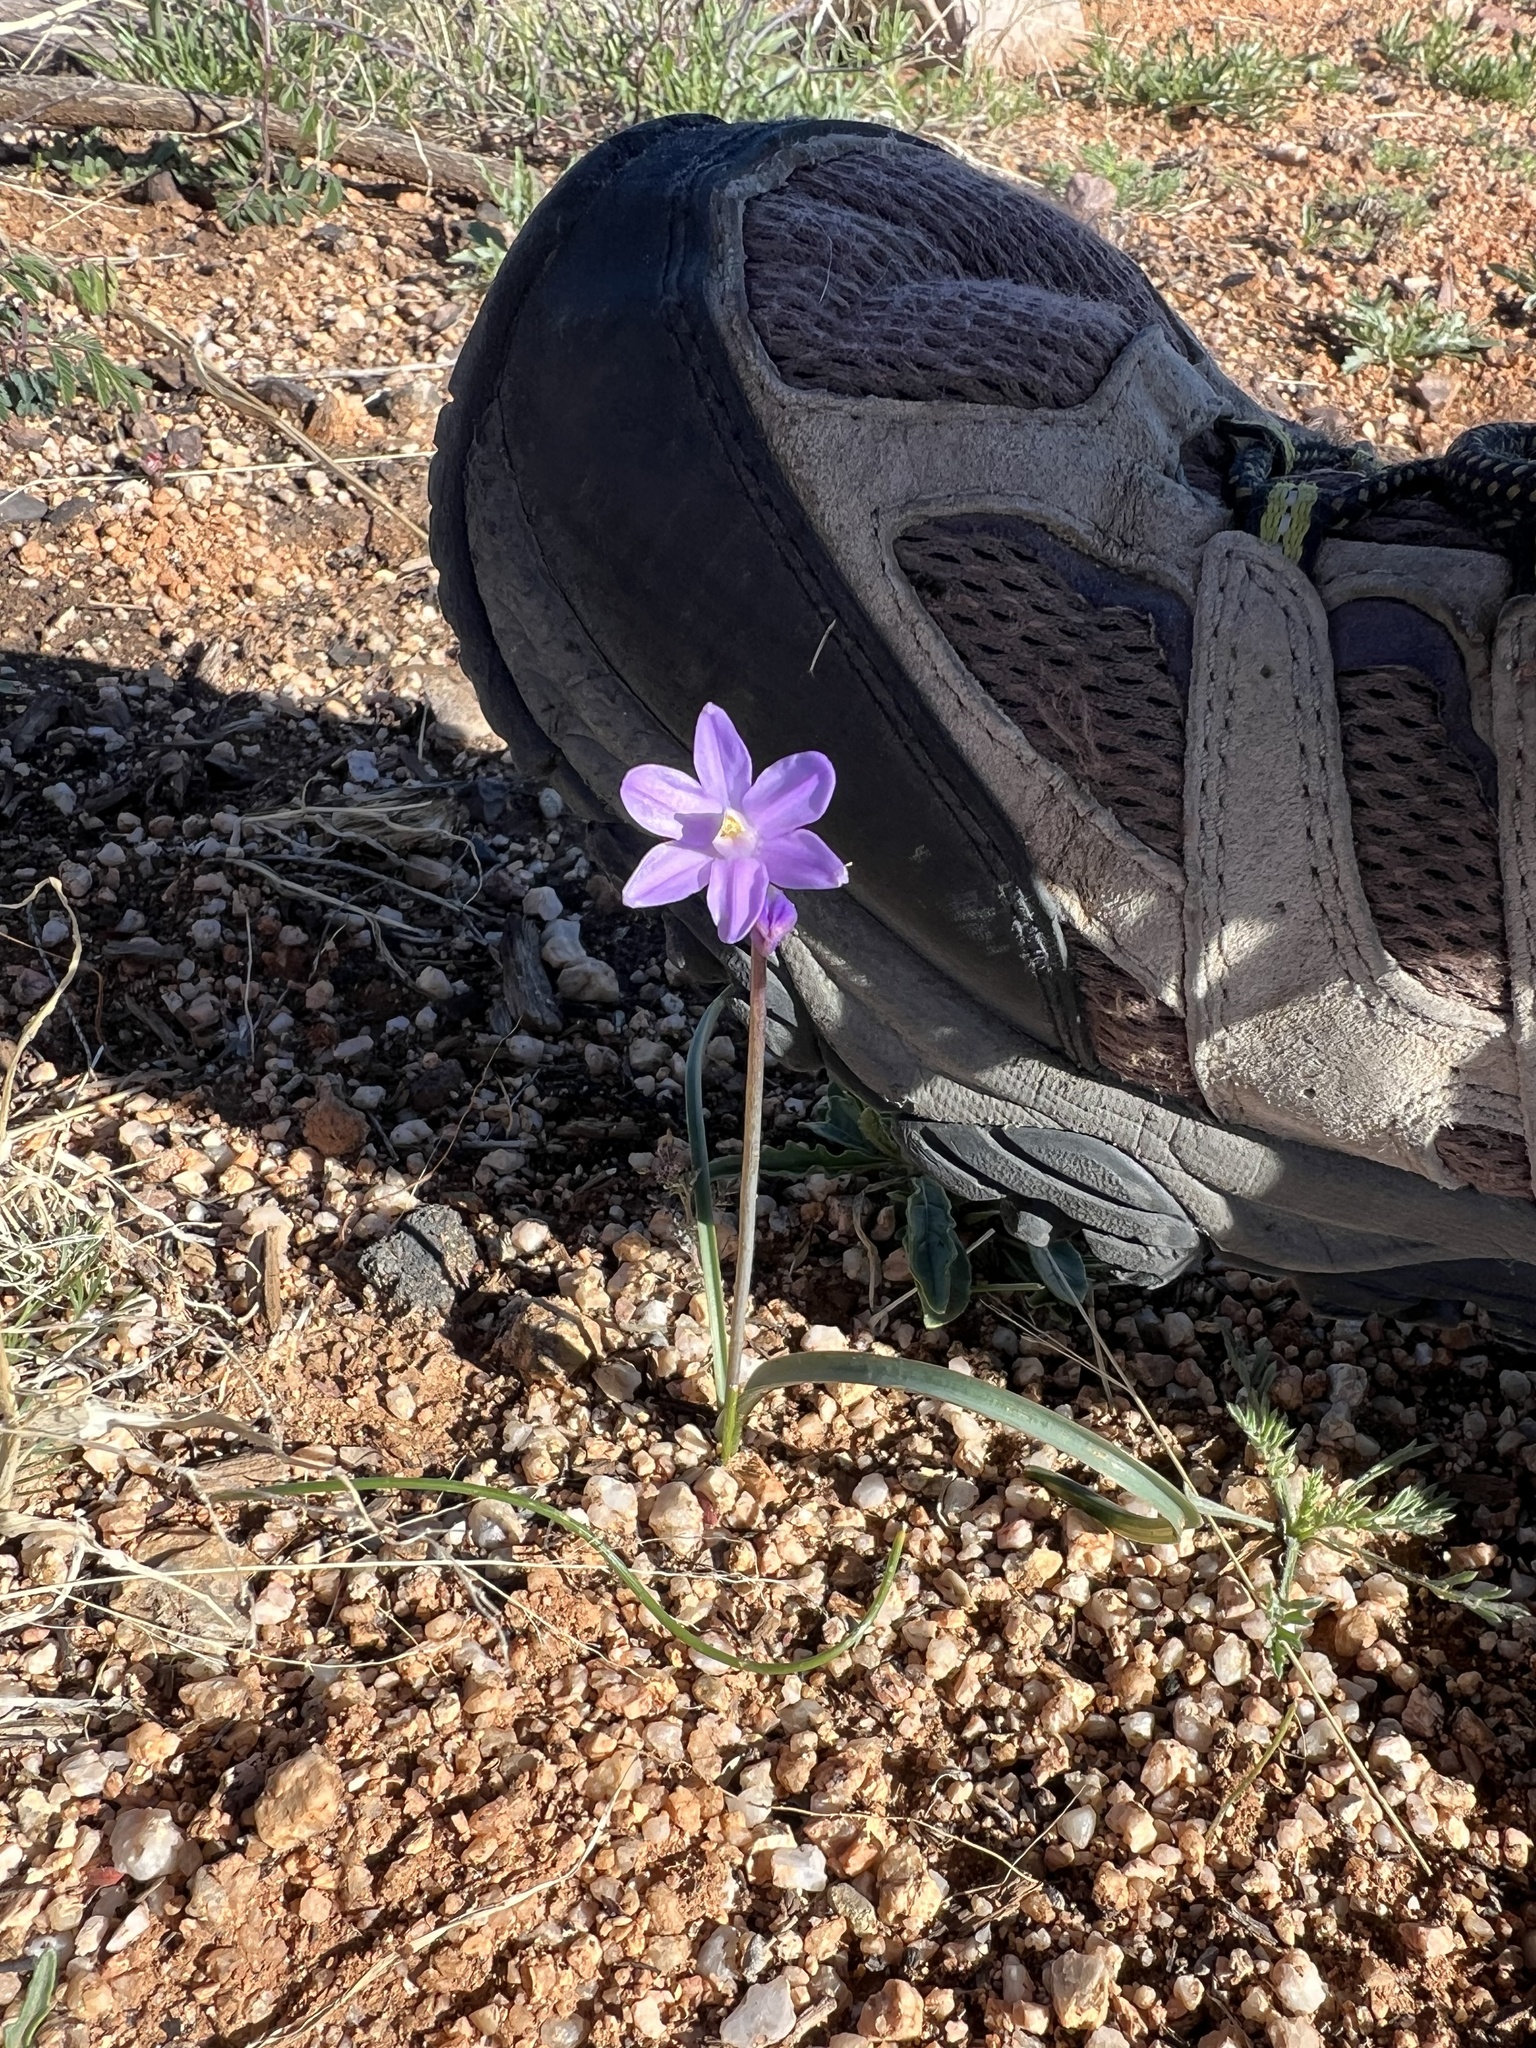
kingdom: Plantae
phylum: Tracheophyta
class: Liliopsida
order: Asparagales
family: Asparagaceae
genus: Dipterostemon
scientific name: Dipterostemon capitatus
